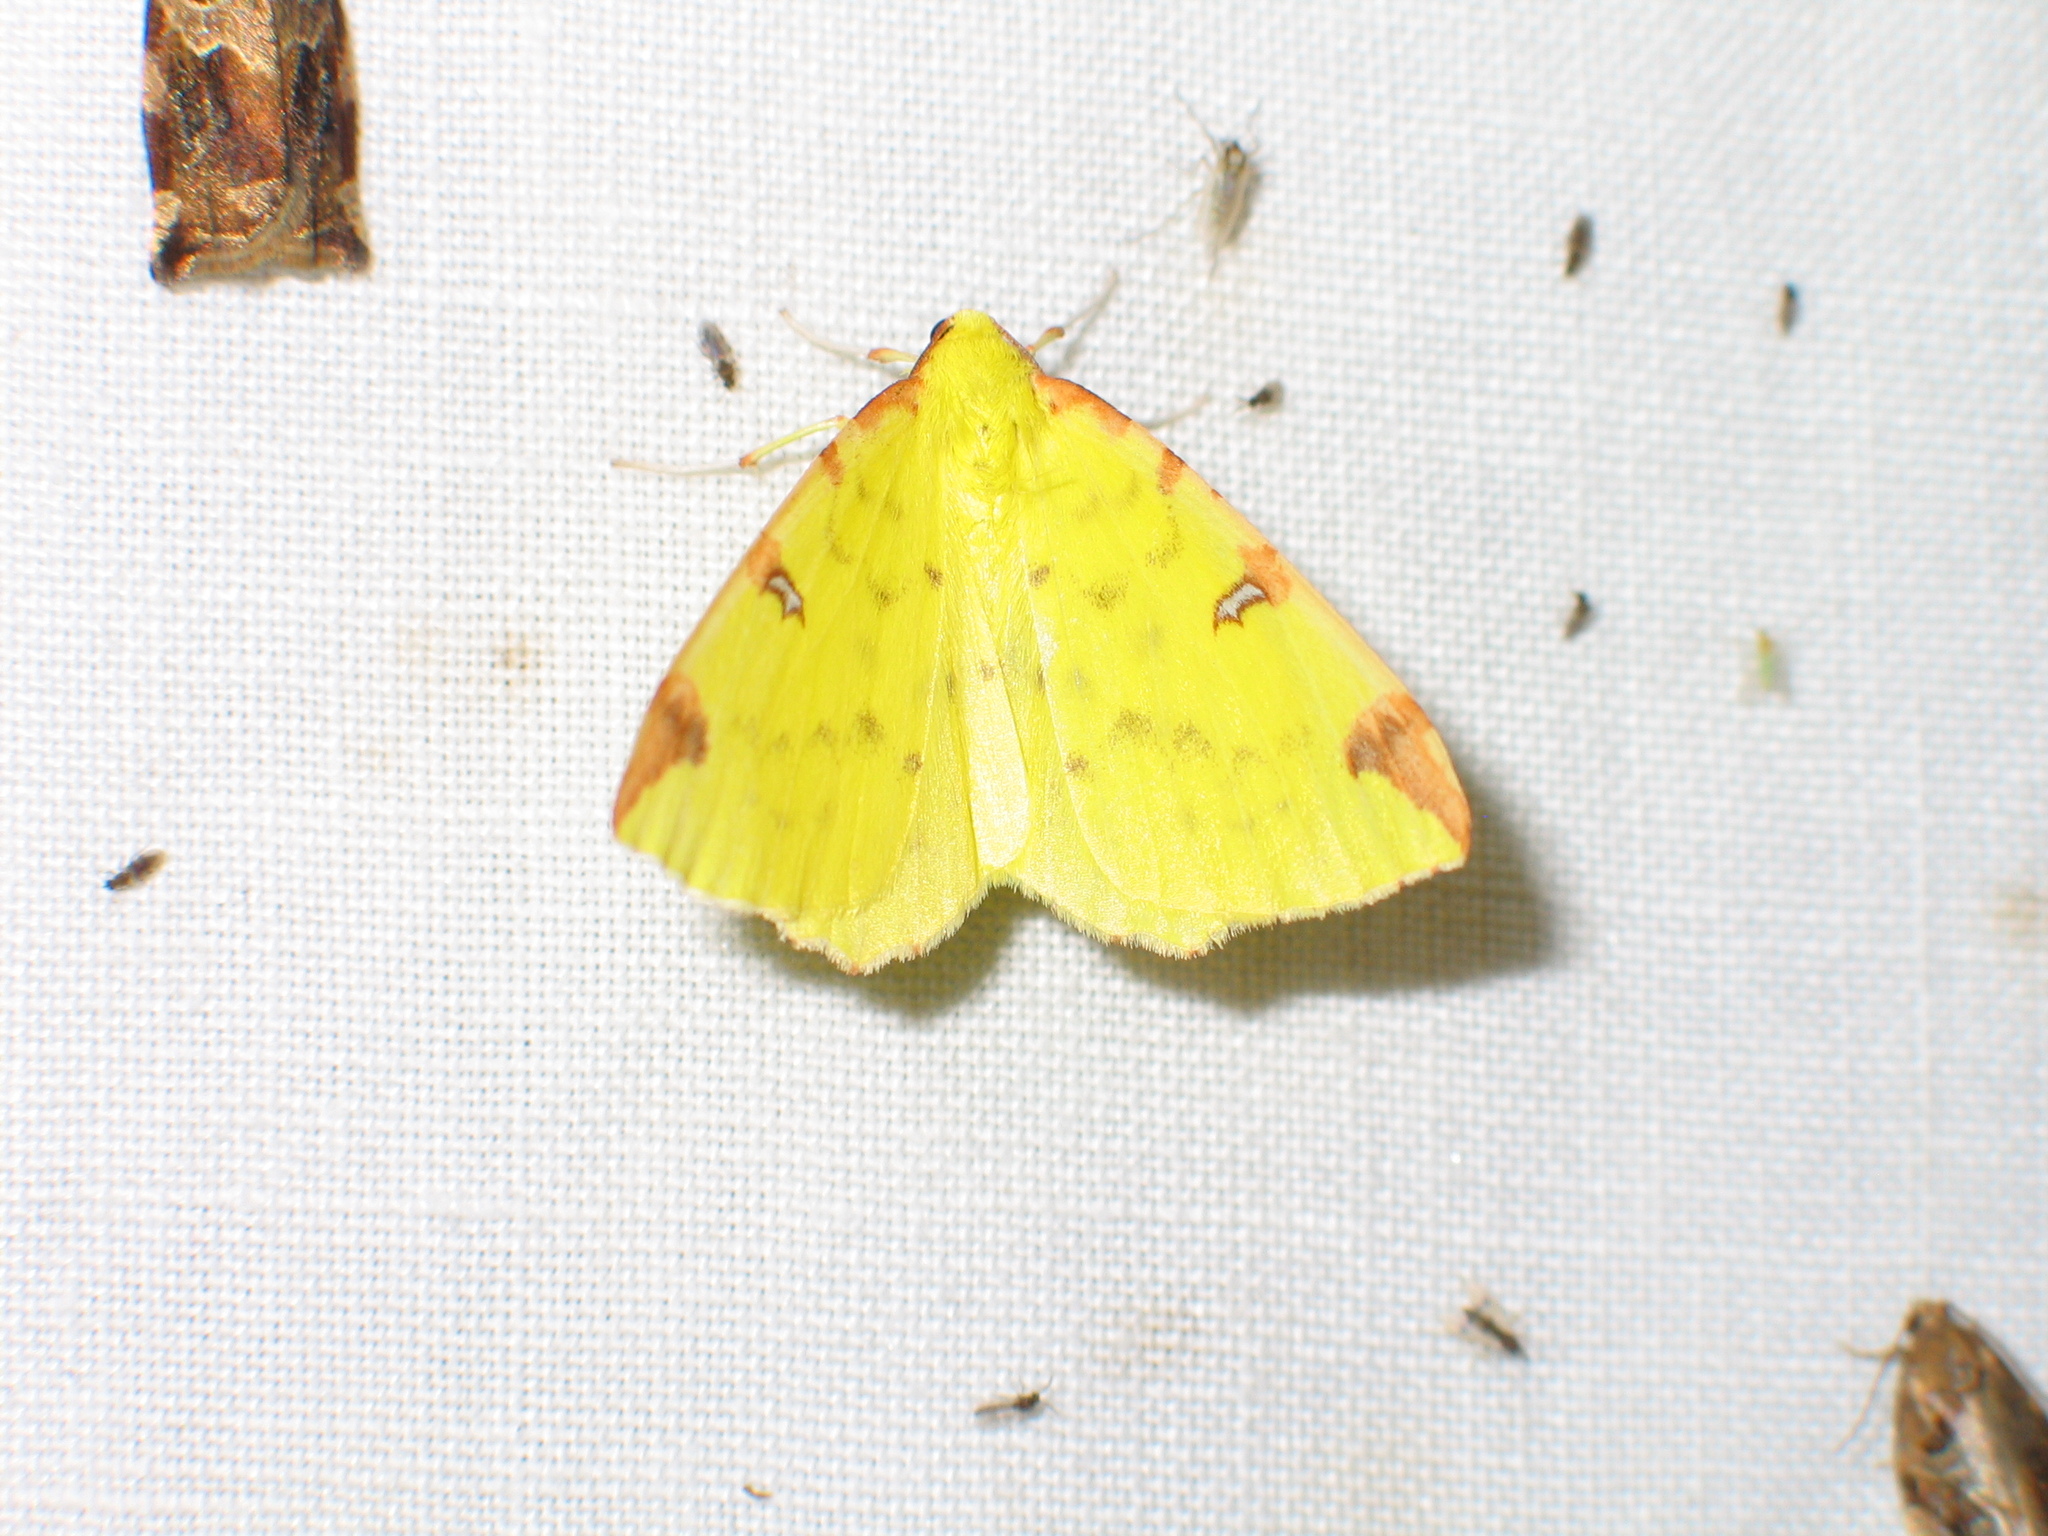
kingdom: Animalia
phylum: Arthropoda
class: Insecta
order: Lepidoptera
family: Geometridae
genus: Opisthograptis
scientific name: Opisthograptis luteolata
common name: Brimstone moth
